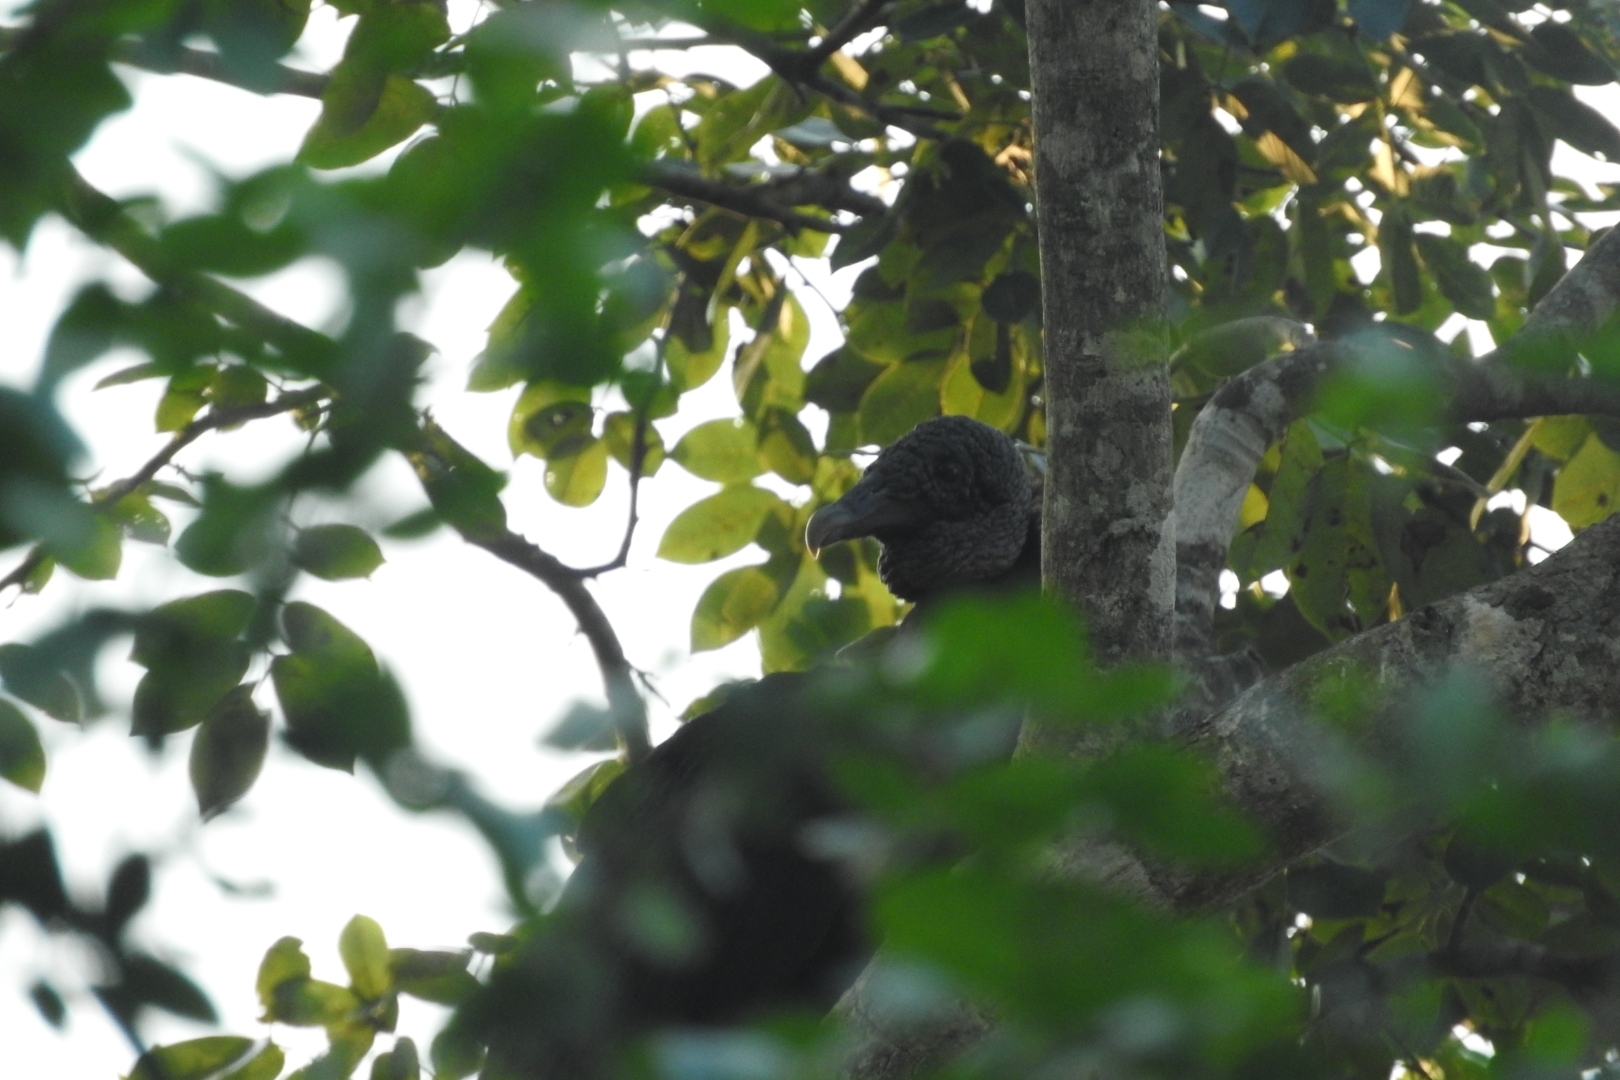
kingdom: Animalia
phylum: Chordata
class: Aves
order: Accipitriformes
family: Cathartidae
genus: Coragyps
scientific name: Coragyps atratus
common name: Black vulture
